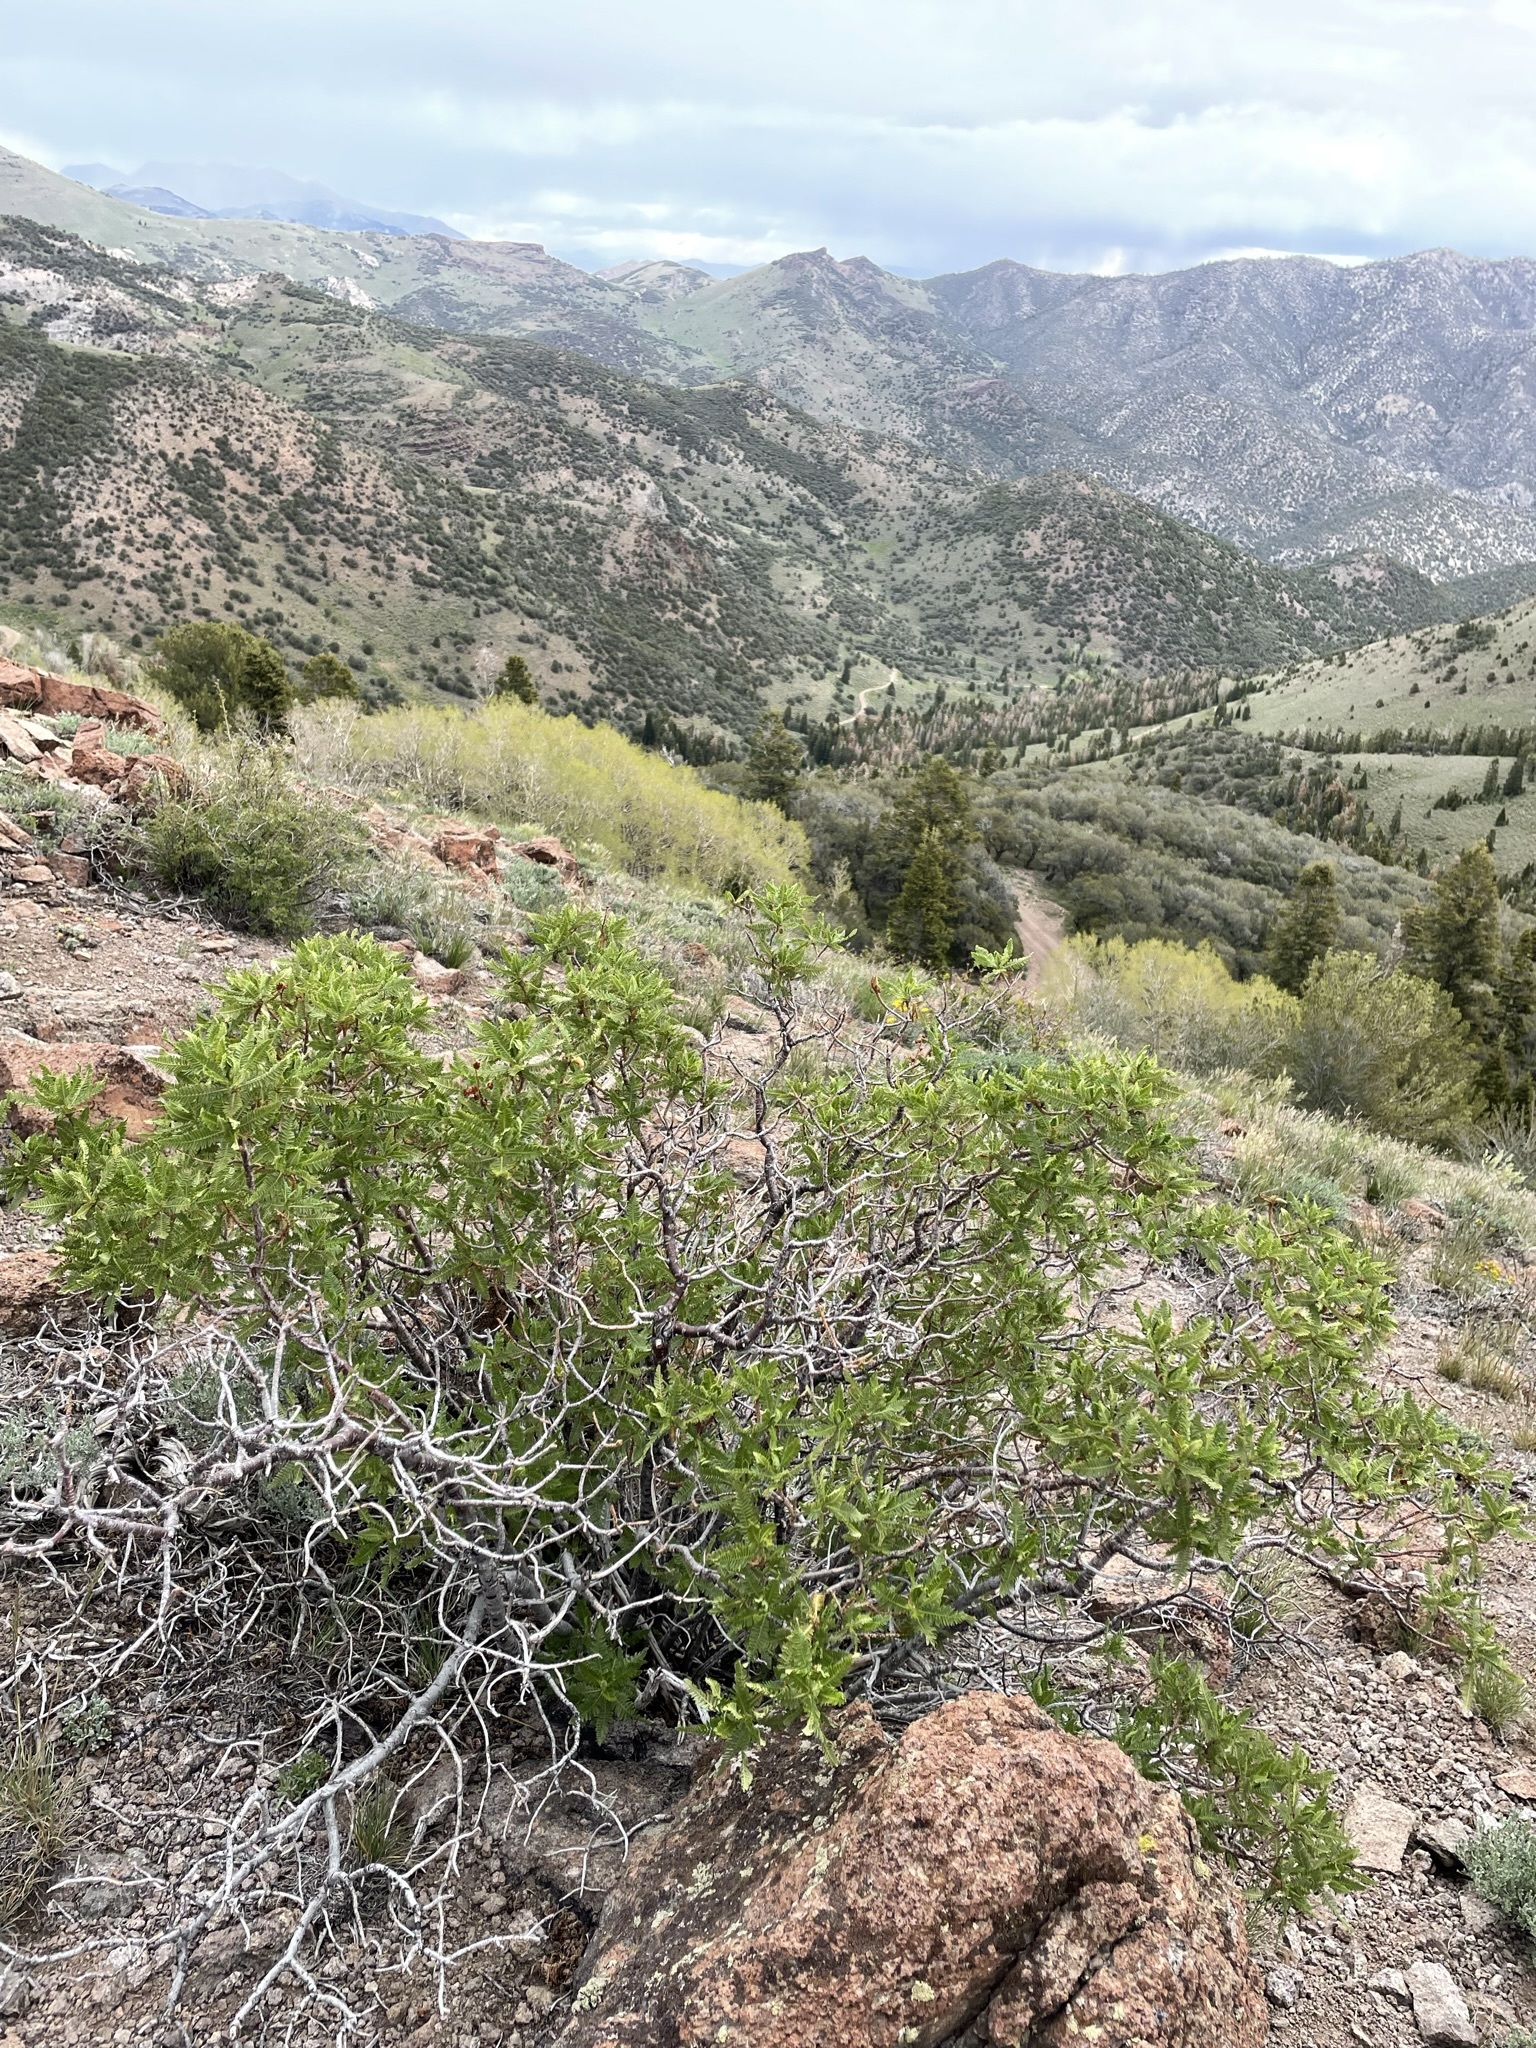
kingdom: Plantae
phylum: Tracheophyta
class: Magnoliopsida
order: Rosales
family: Rosaceae
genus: Chamaebatiaria
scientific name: Chamaebatiaria millefolium
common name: Fernbush
